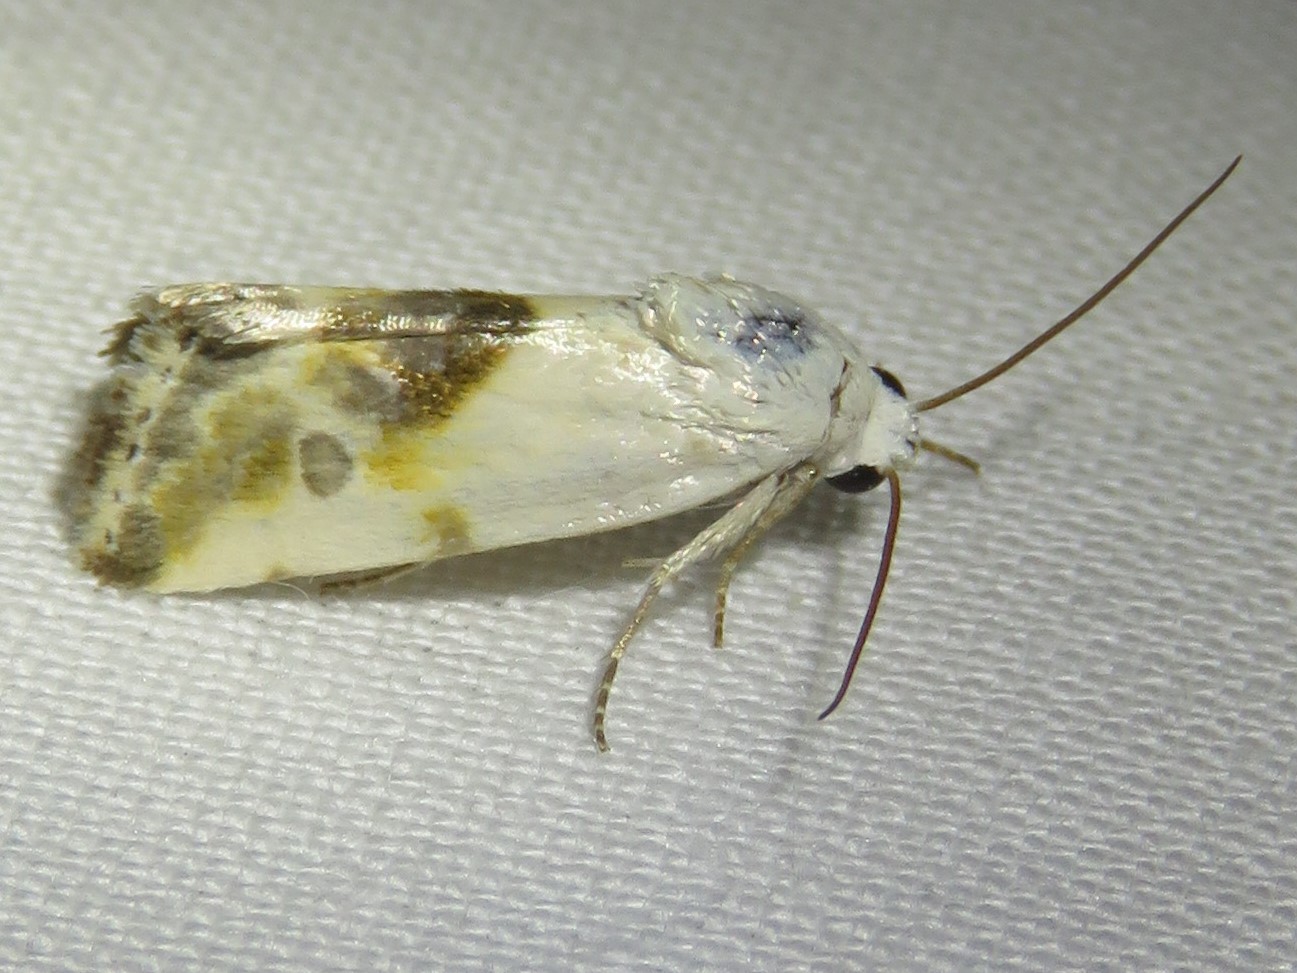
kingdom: Animalia
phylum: Arthropoda
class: Insecta
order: Lepidoptera
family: Noctuidae
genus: Acontia
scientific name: Acontia candefacta
